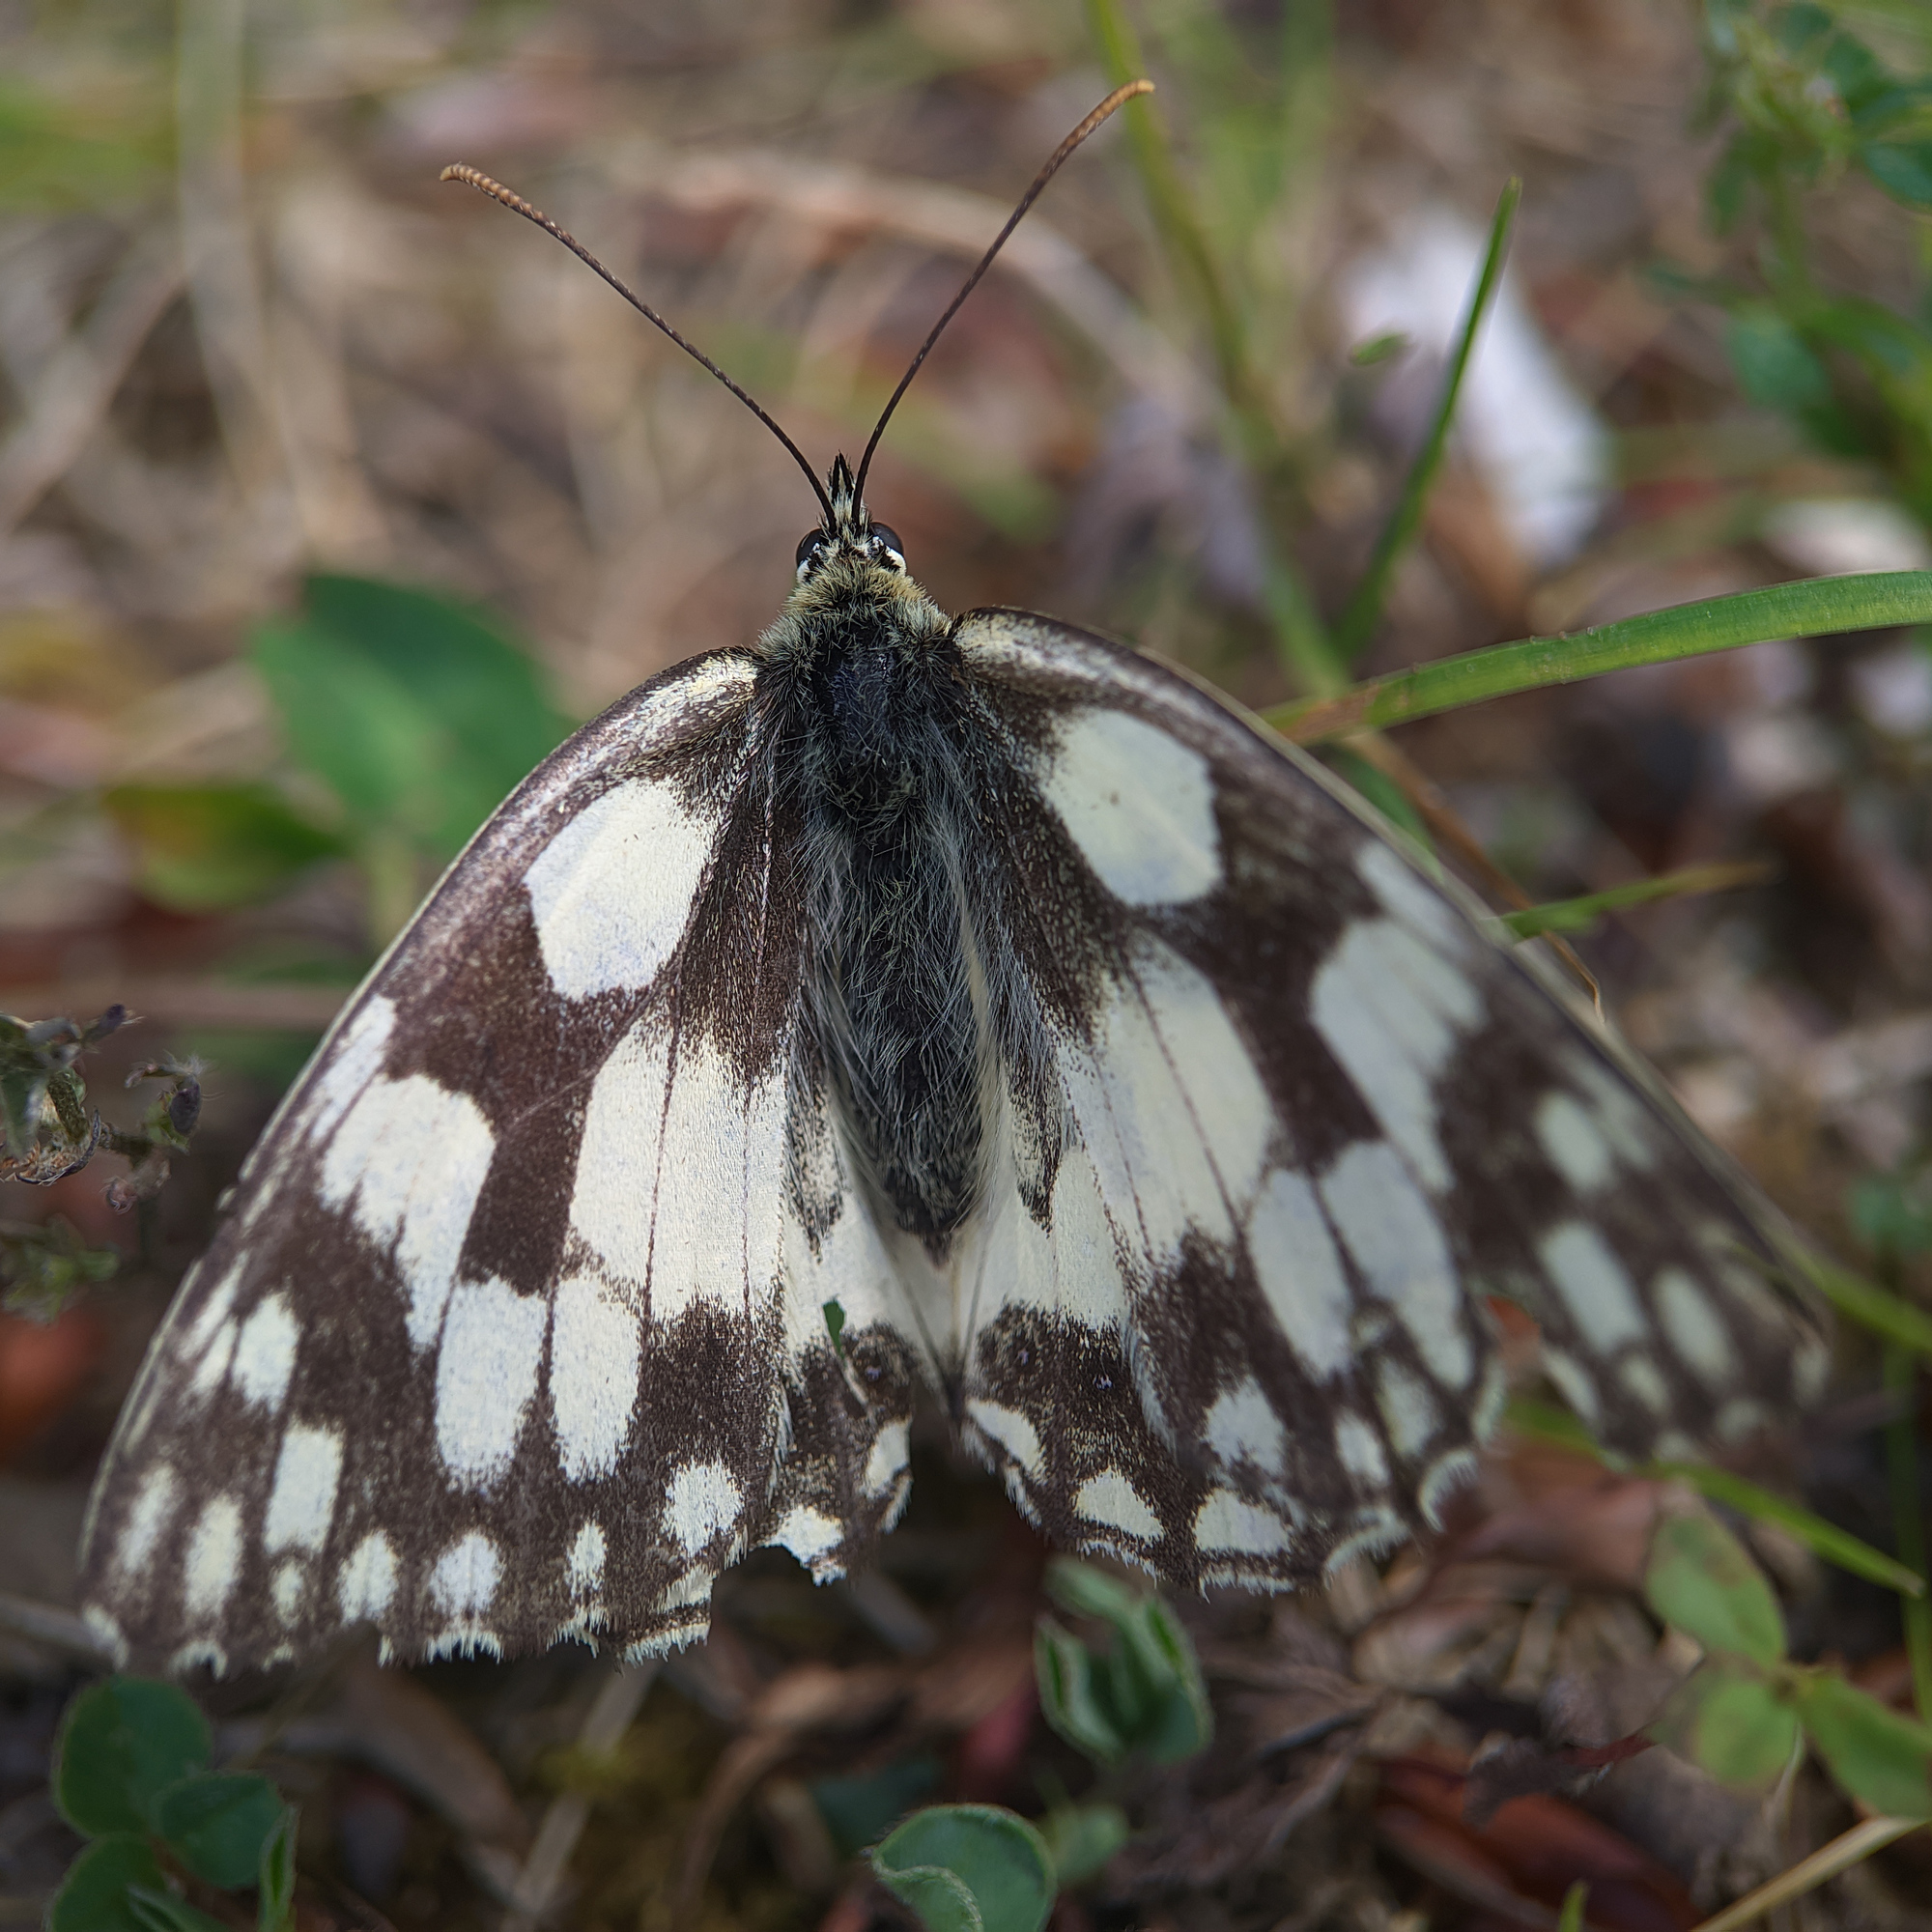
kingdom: Animalia
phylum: Arthropoda
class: Insecta
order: Lepidoptera
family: Nymphalidae
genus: Melanargia
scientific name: Melanargia galathea
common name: Marbled white
